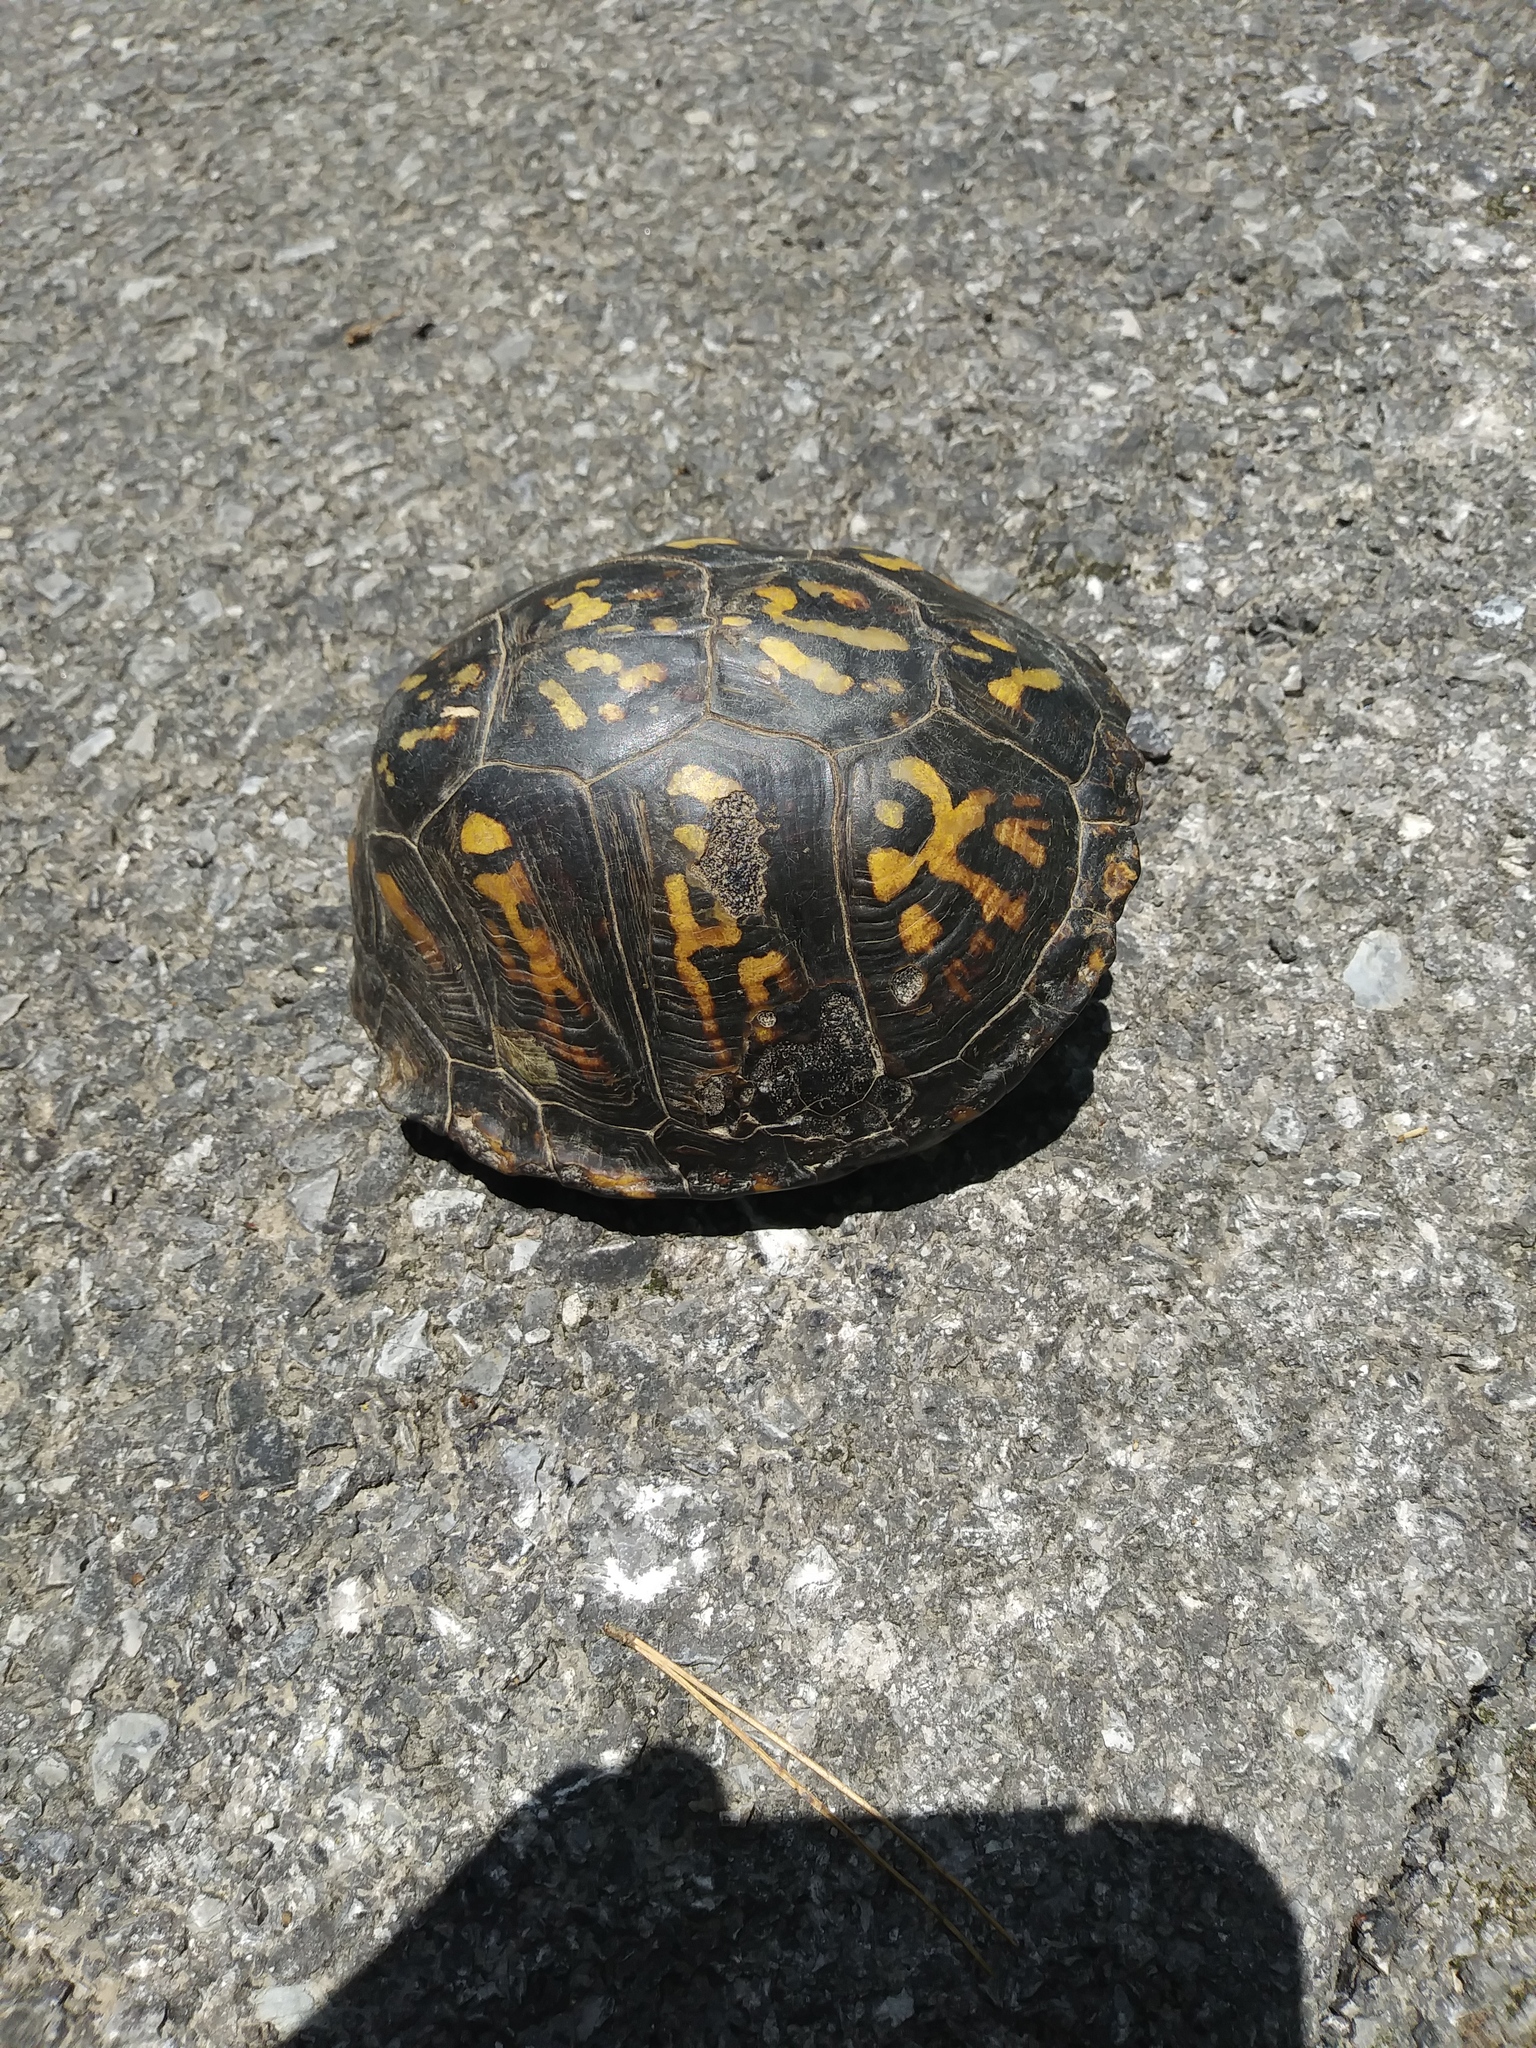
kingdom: Animalia
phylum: Chordata
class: Testudines
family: Emydidae
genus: Terrapene
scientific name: Terrapene carolina
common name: Common box turtle
